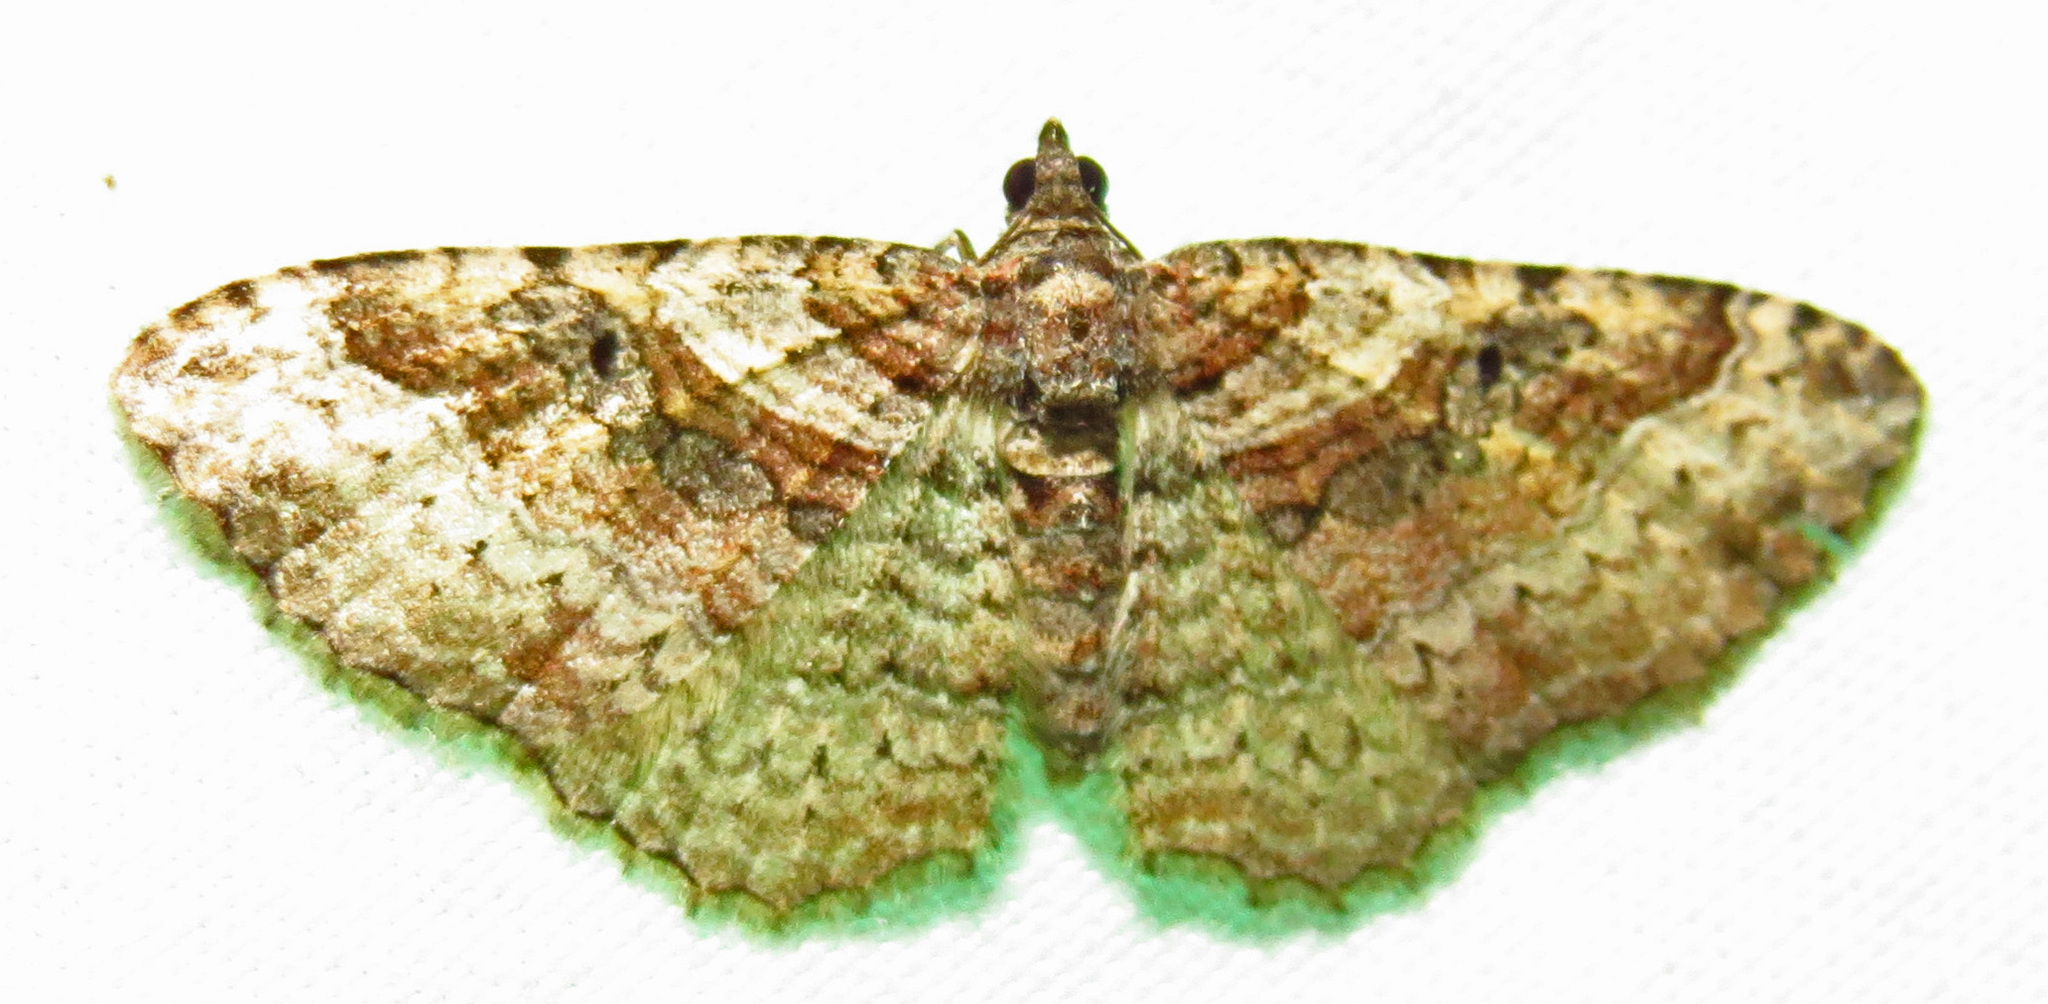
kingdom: Animalia
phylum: Arthropoda
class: Insecta
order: Lepidoptera
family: Geometridae
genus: Costaconvexa
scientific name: Costaconvexa centrostrigaria
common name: Bent-line carpet
